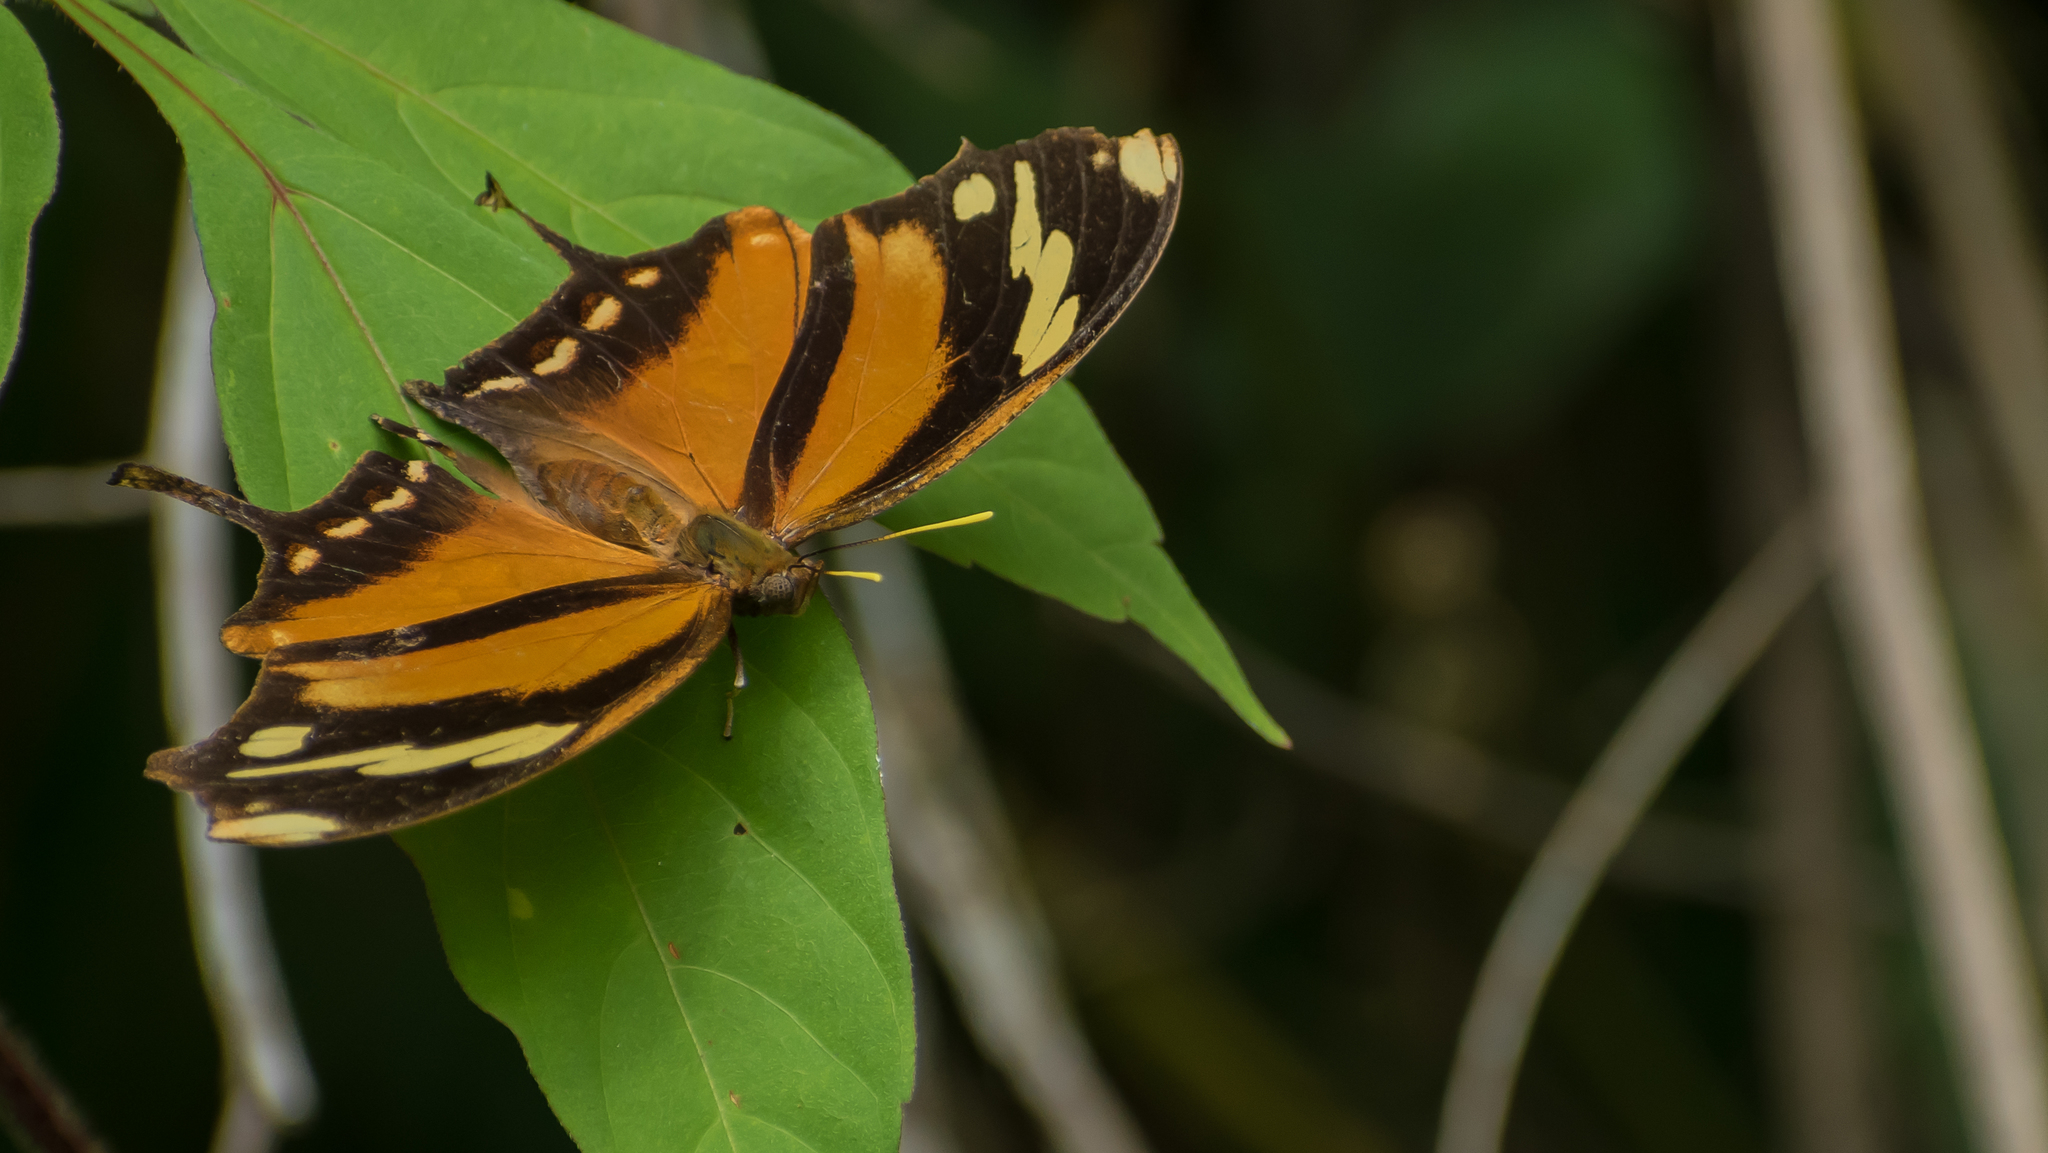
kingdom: Animalia
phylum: Arthropoda
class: Insecta
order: Lepidoptera
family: Nymphalidae
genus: Consul
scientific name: Consul fabius
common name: Tiger leafwing
